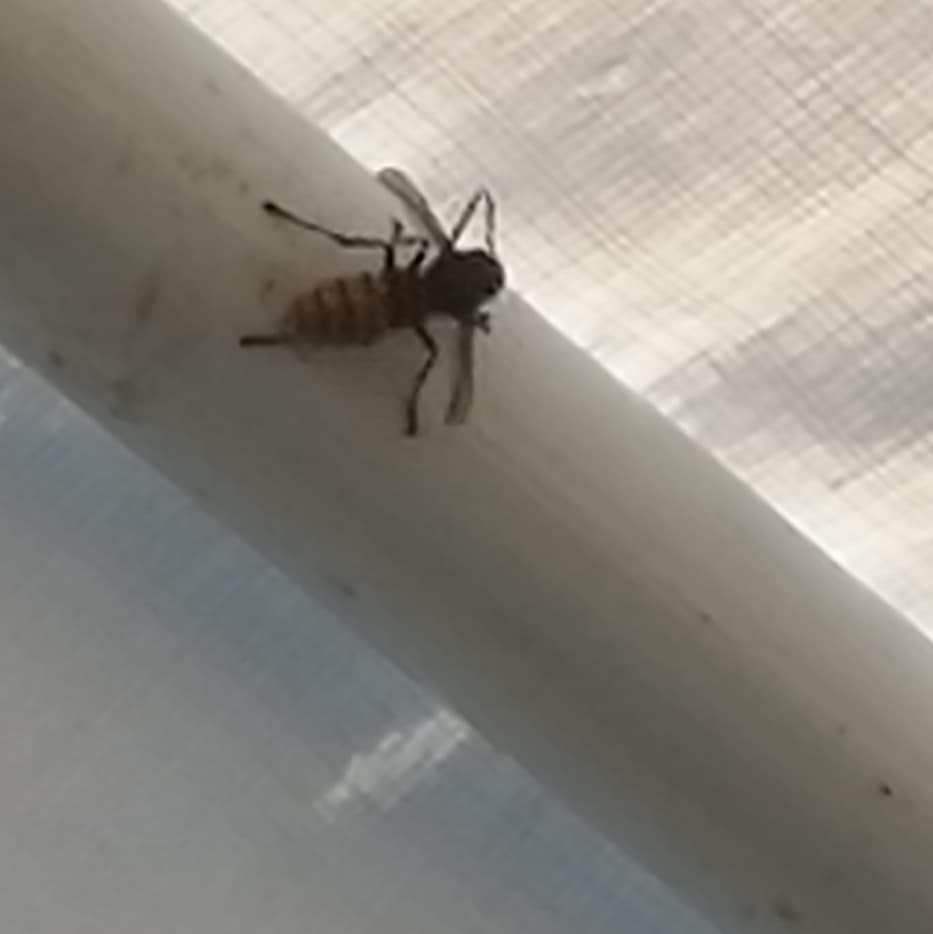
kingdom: Animalia
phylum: Arthropoda
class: Insecta
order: Hymenoptera
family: Vespidae
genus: Vespa
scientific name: Vespa crabro
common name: Hornet
